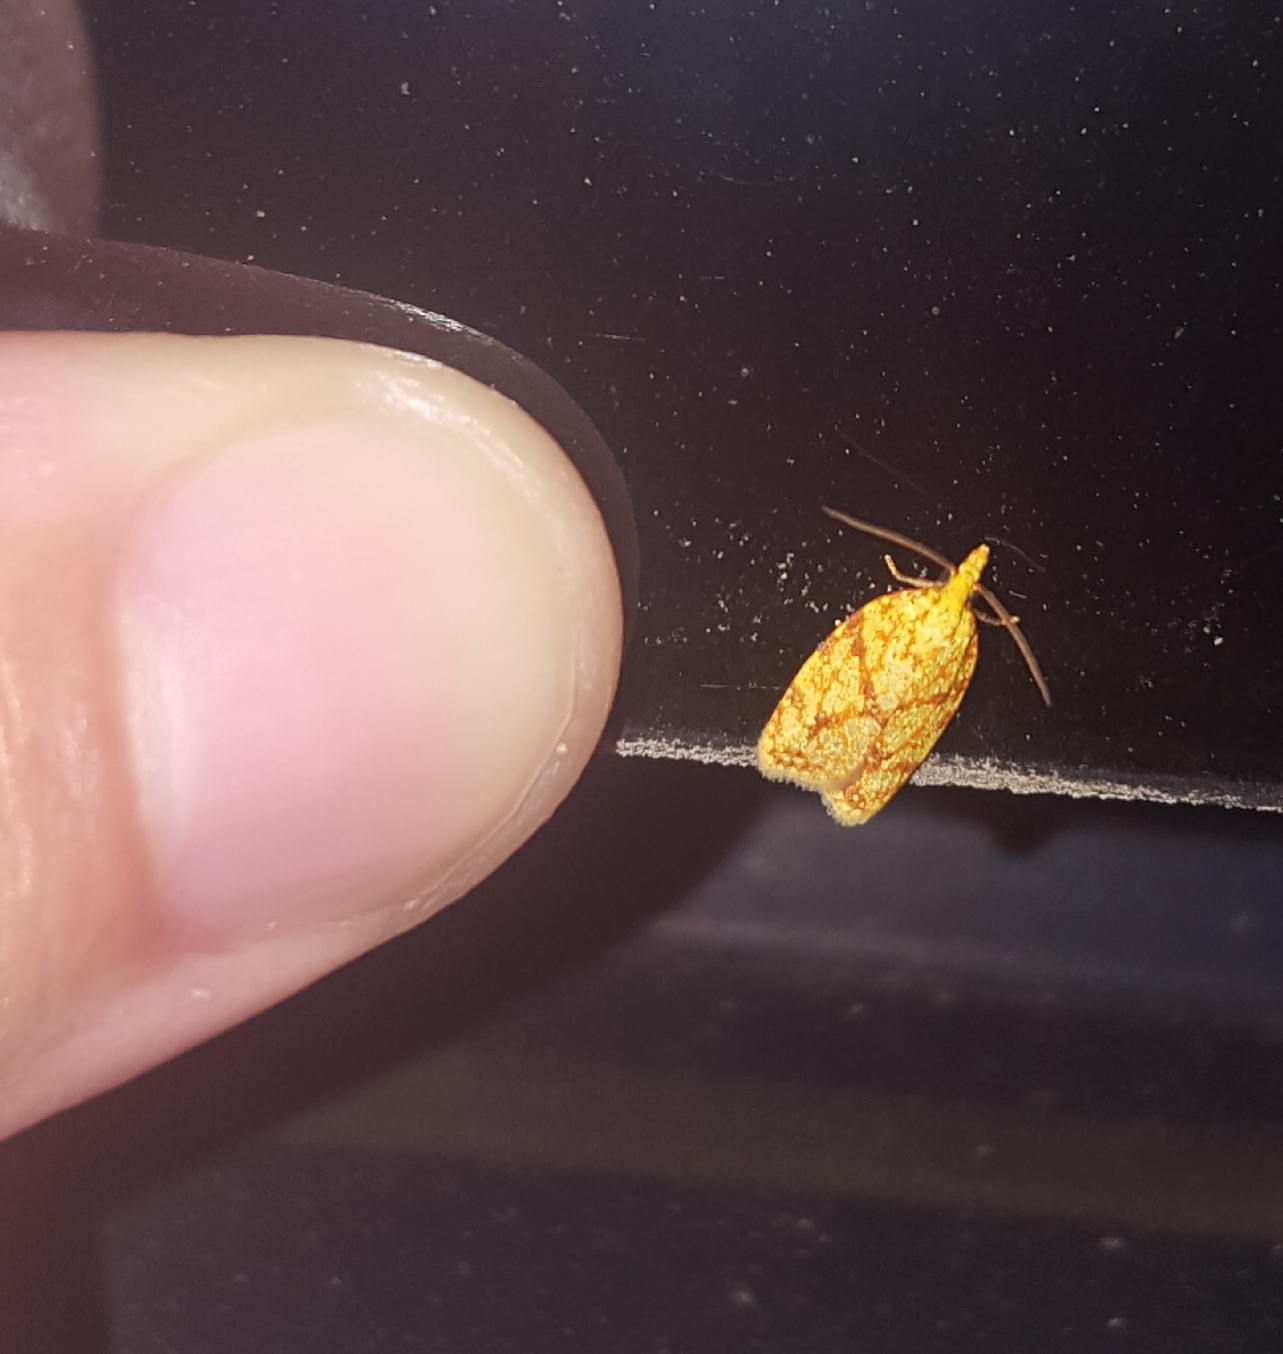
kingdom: Animalia
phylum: Arthropoda
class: Insecta
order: Lepidoptera
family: Tortricidae
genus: Cenopis
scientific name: Cenopis reticulatana
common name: Reticulated fruitworm moth
